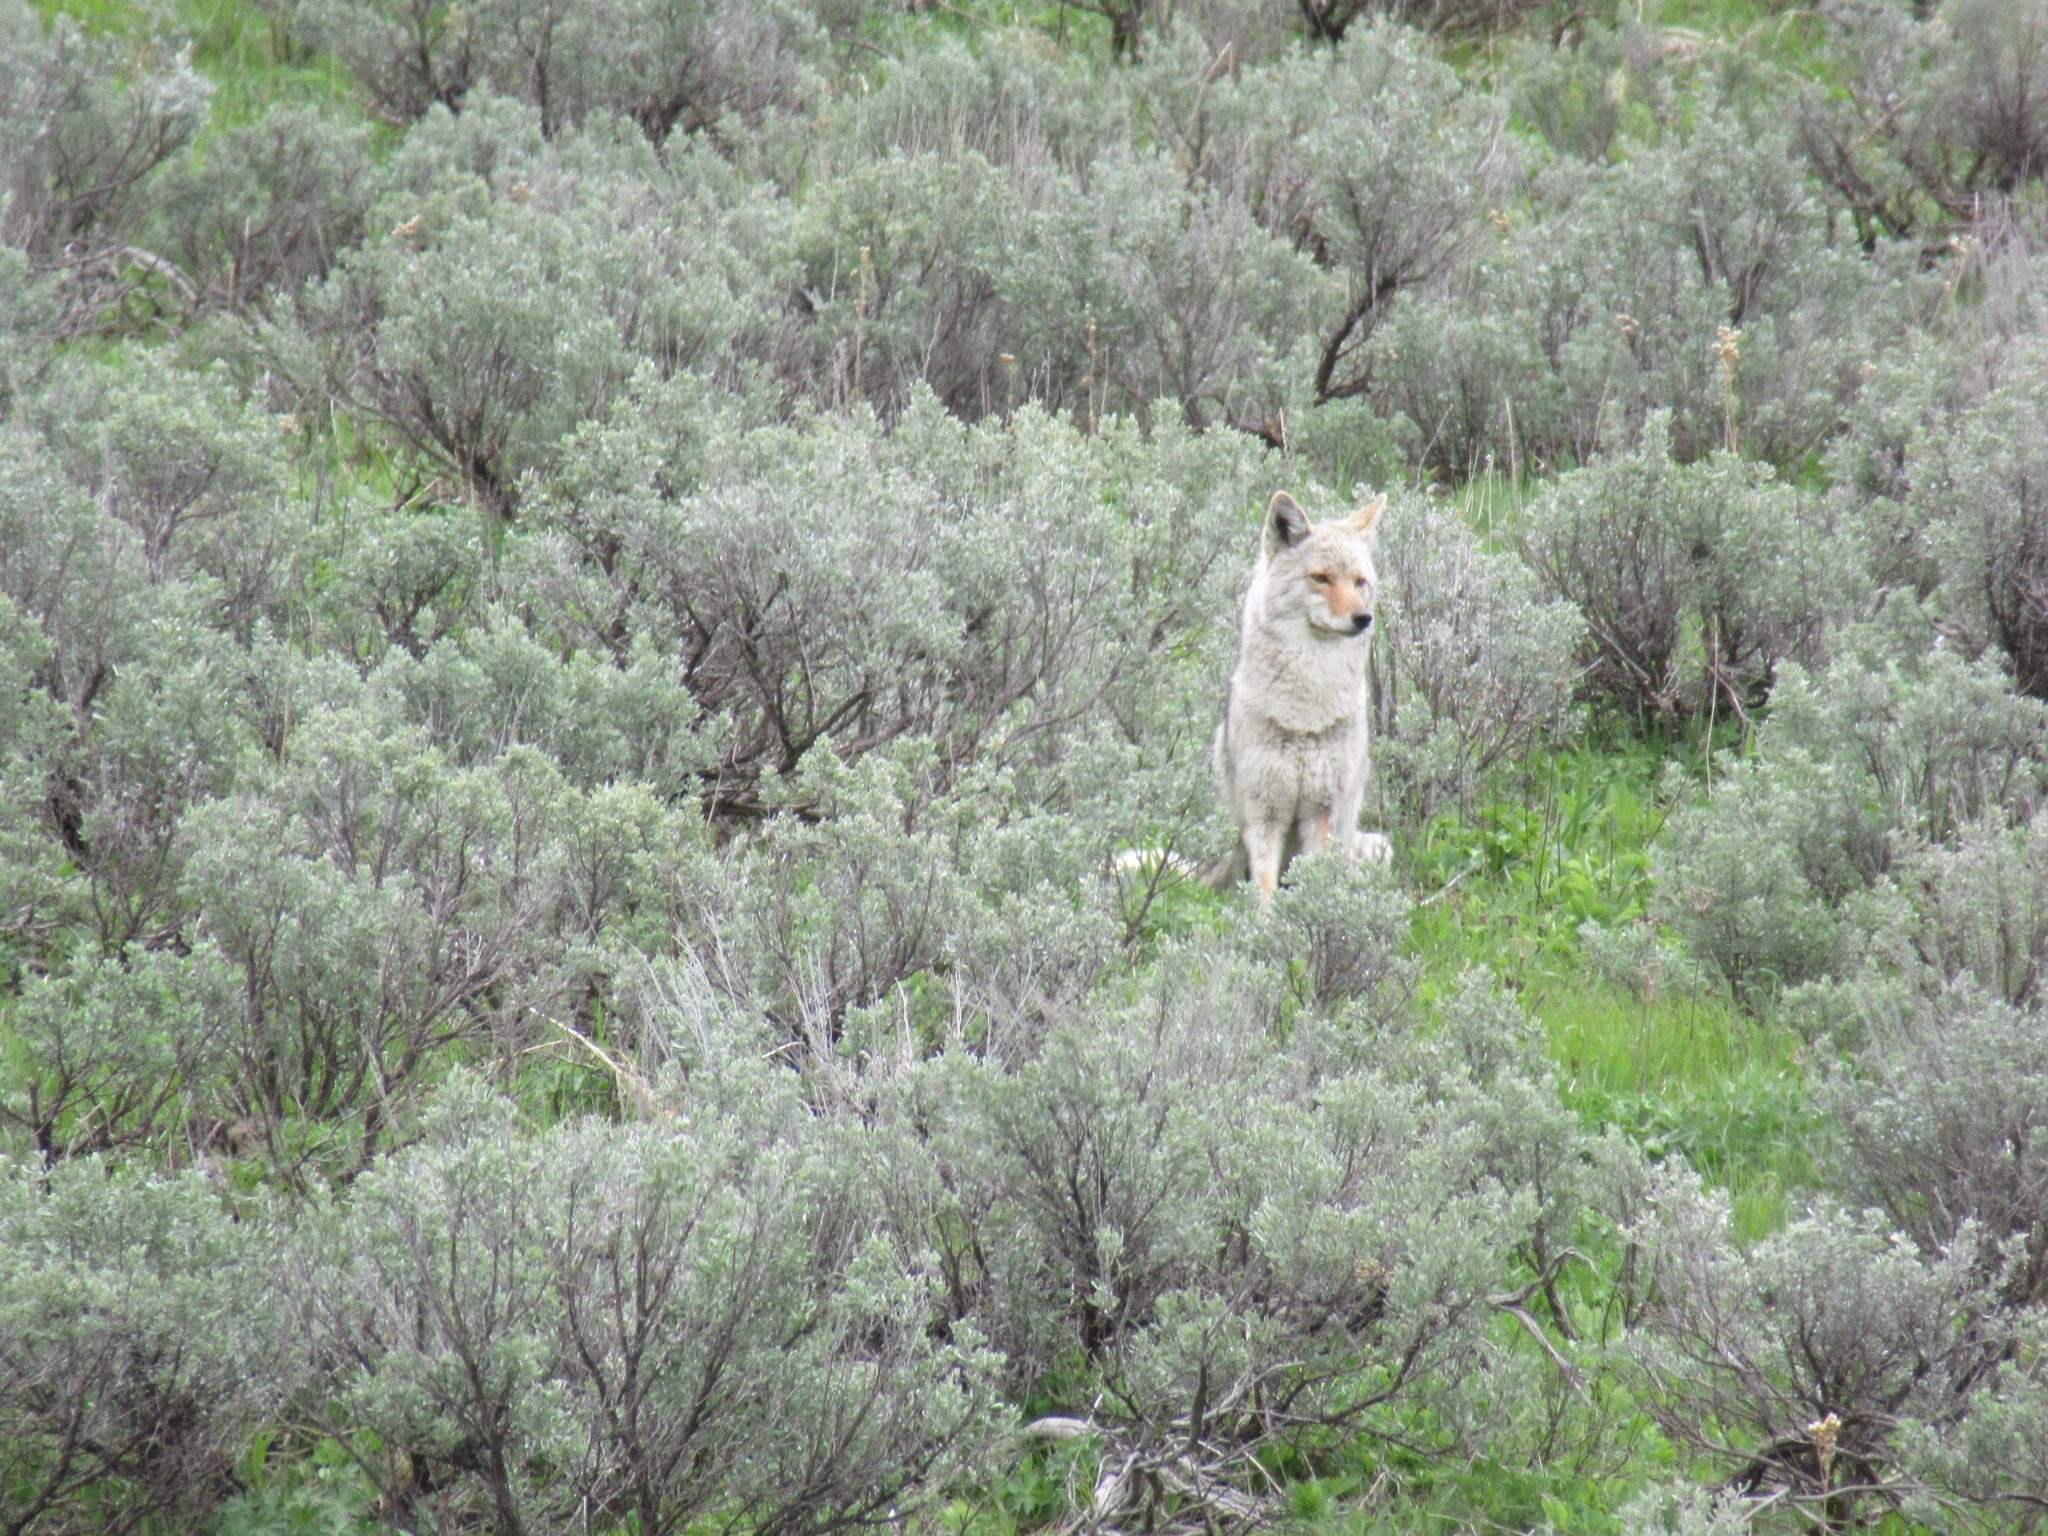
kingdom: Animalia
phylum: Chordata
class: Mammalia
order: Carnivora
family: Canidae
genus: Canis
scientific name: Canis latrans
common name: Coyote
